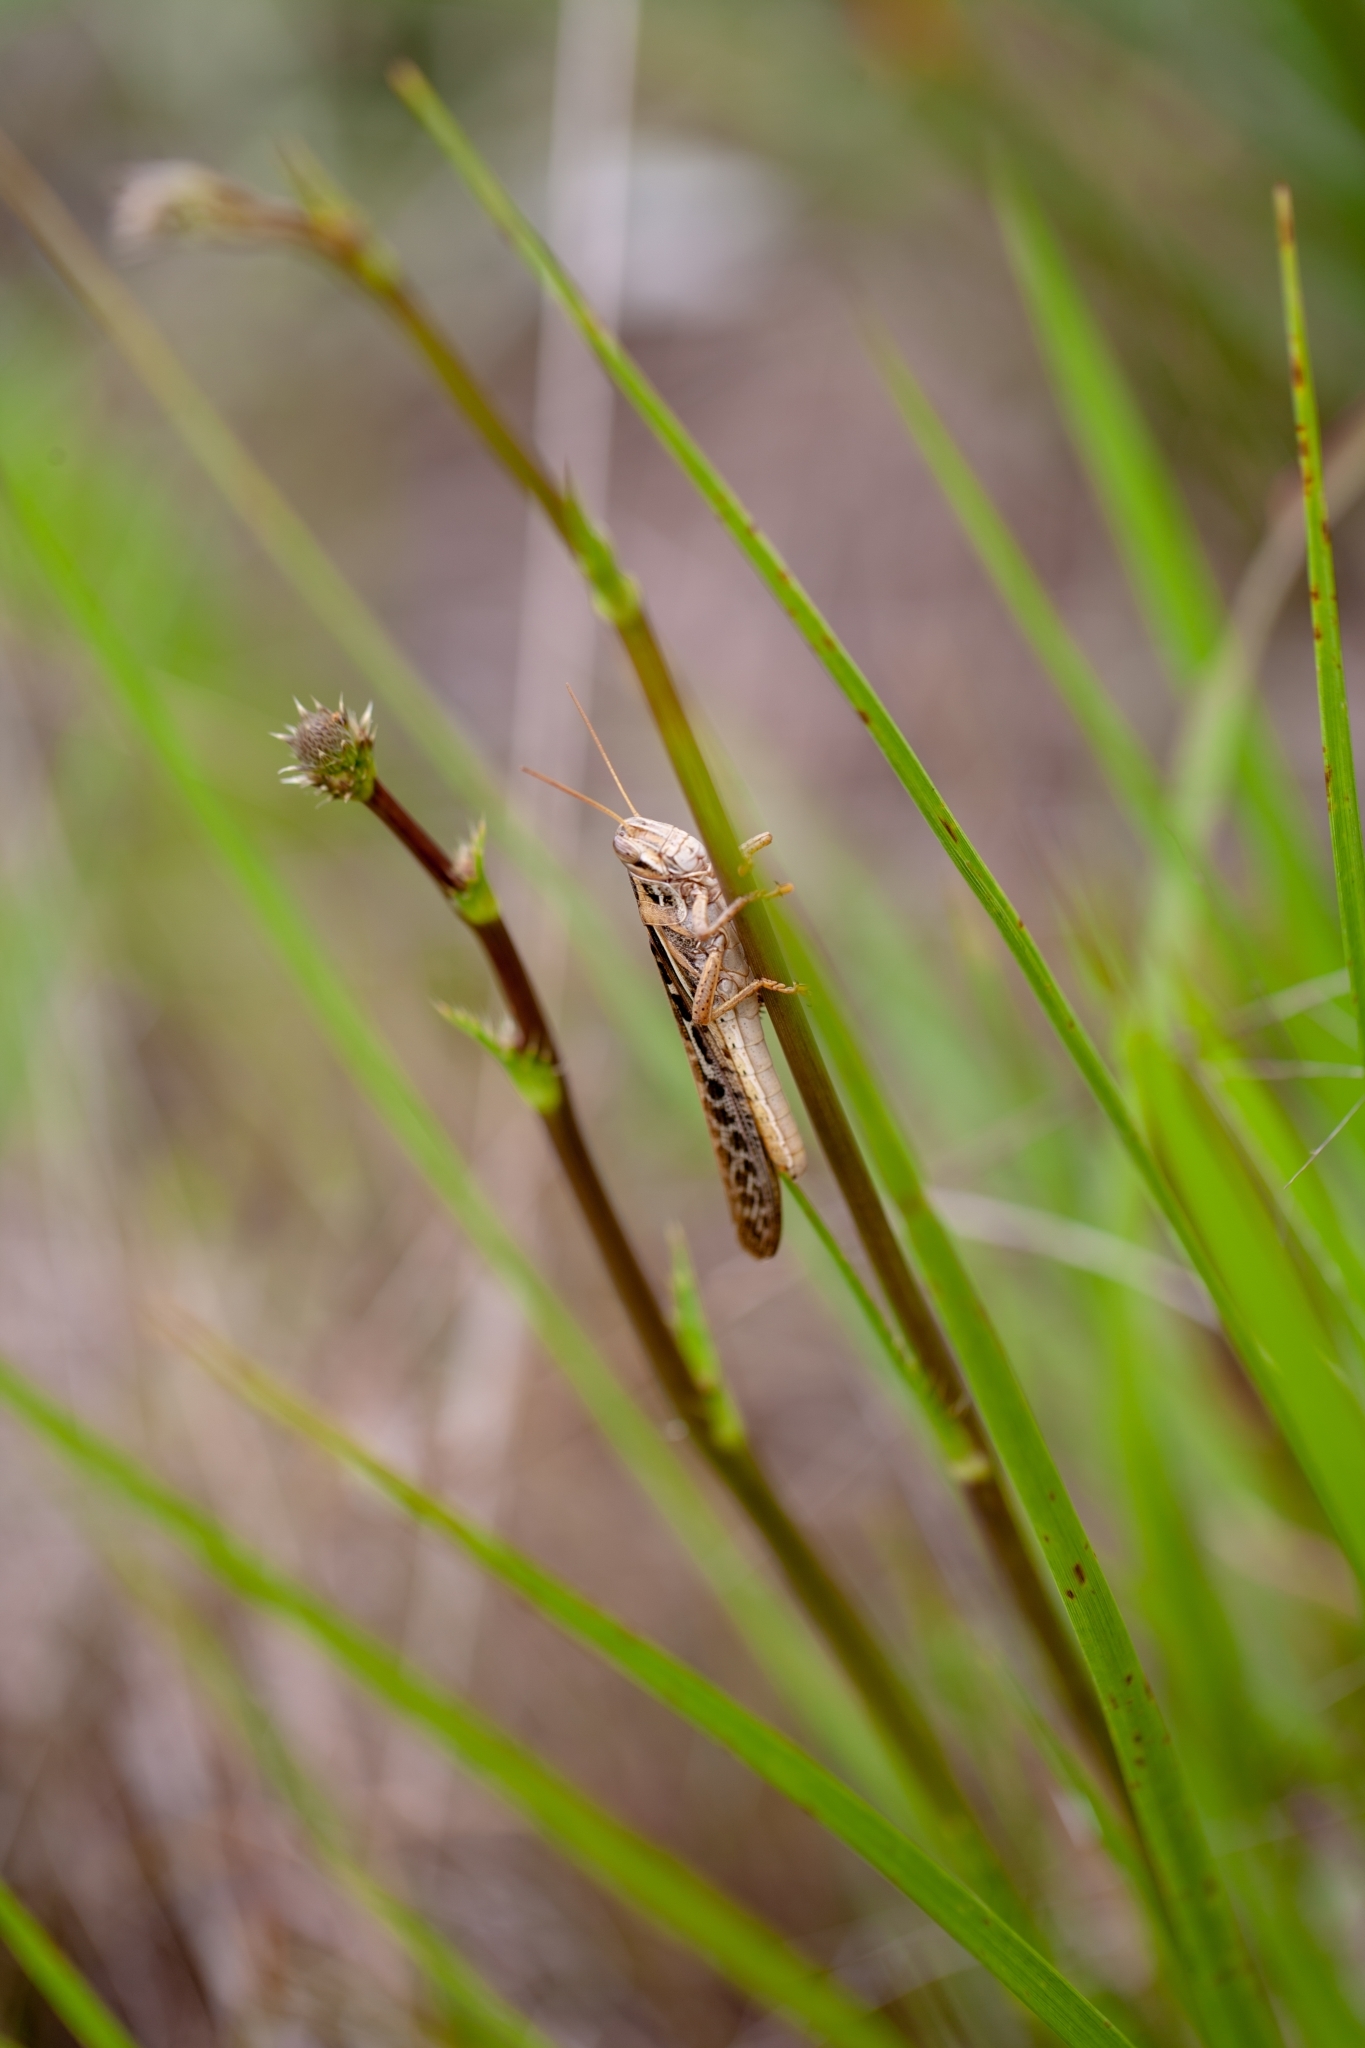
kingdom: Animalia
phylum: Arthropoda
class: Insecta
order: Orthoptera
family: Acrididae
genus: Schistocerca
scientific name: Schistocerca americana
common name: American bird locust
